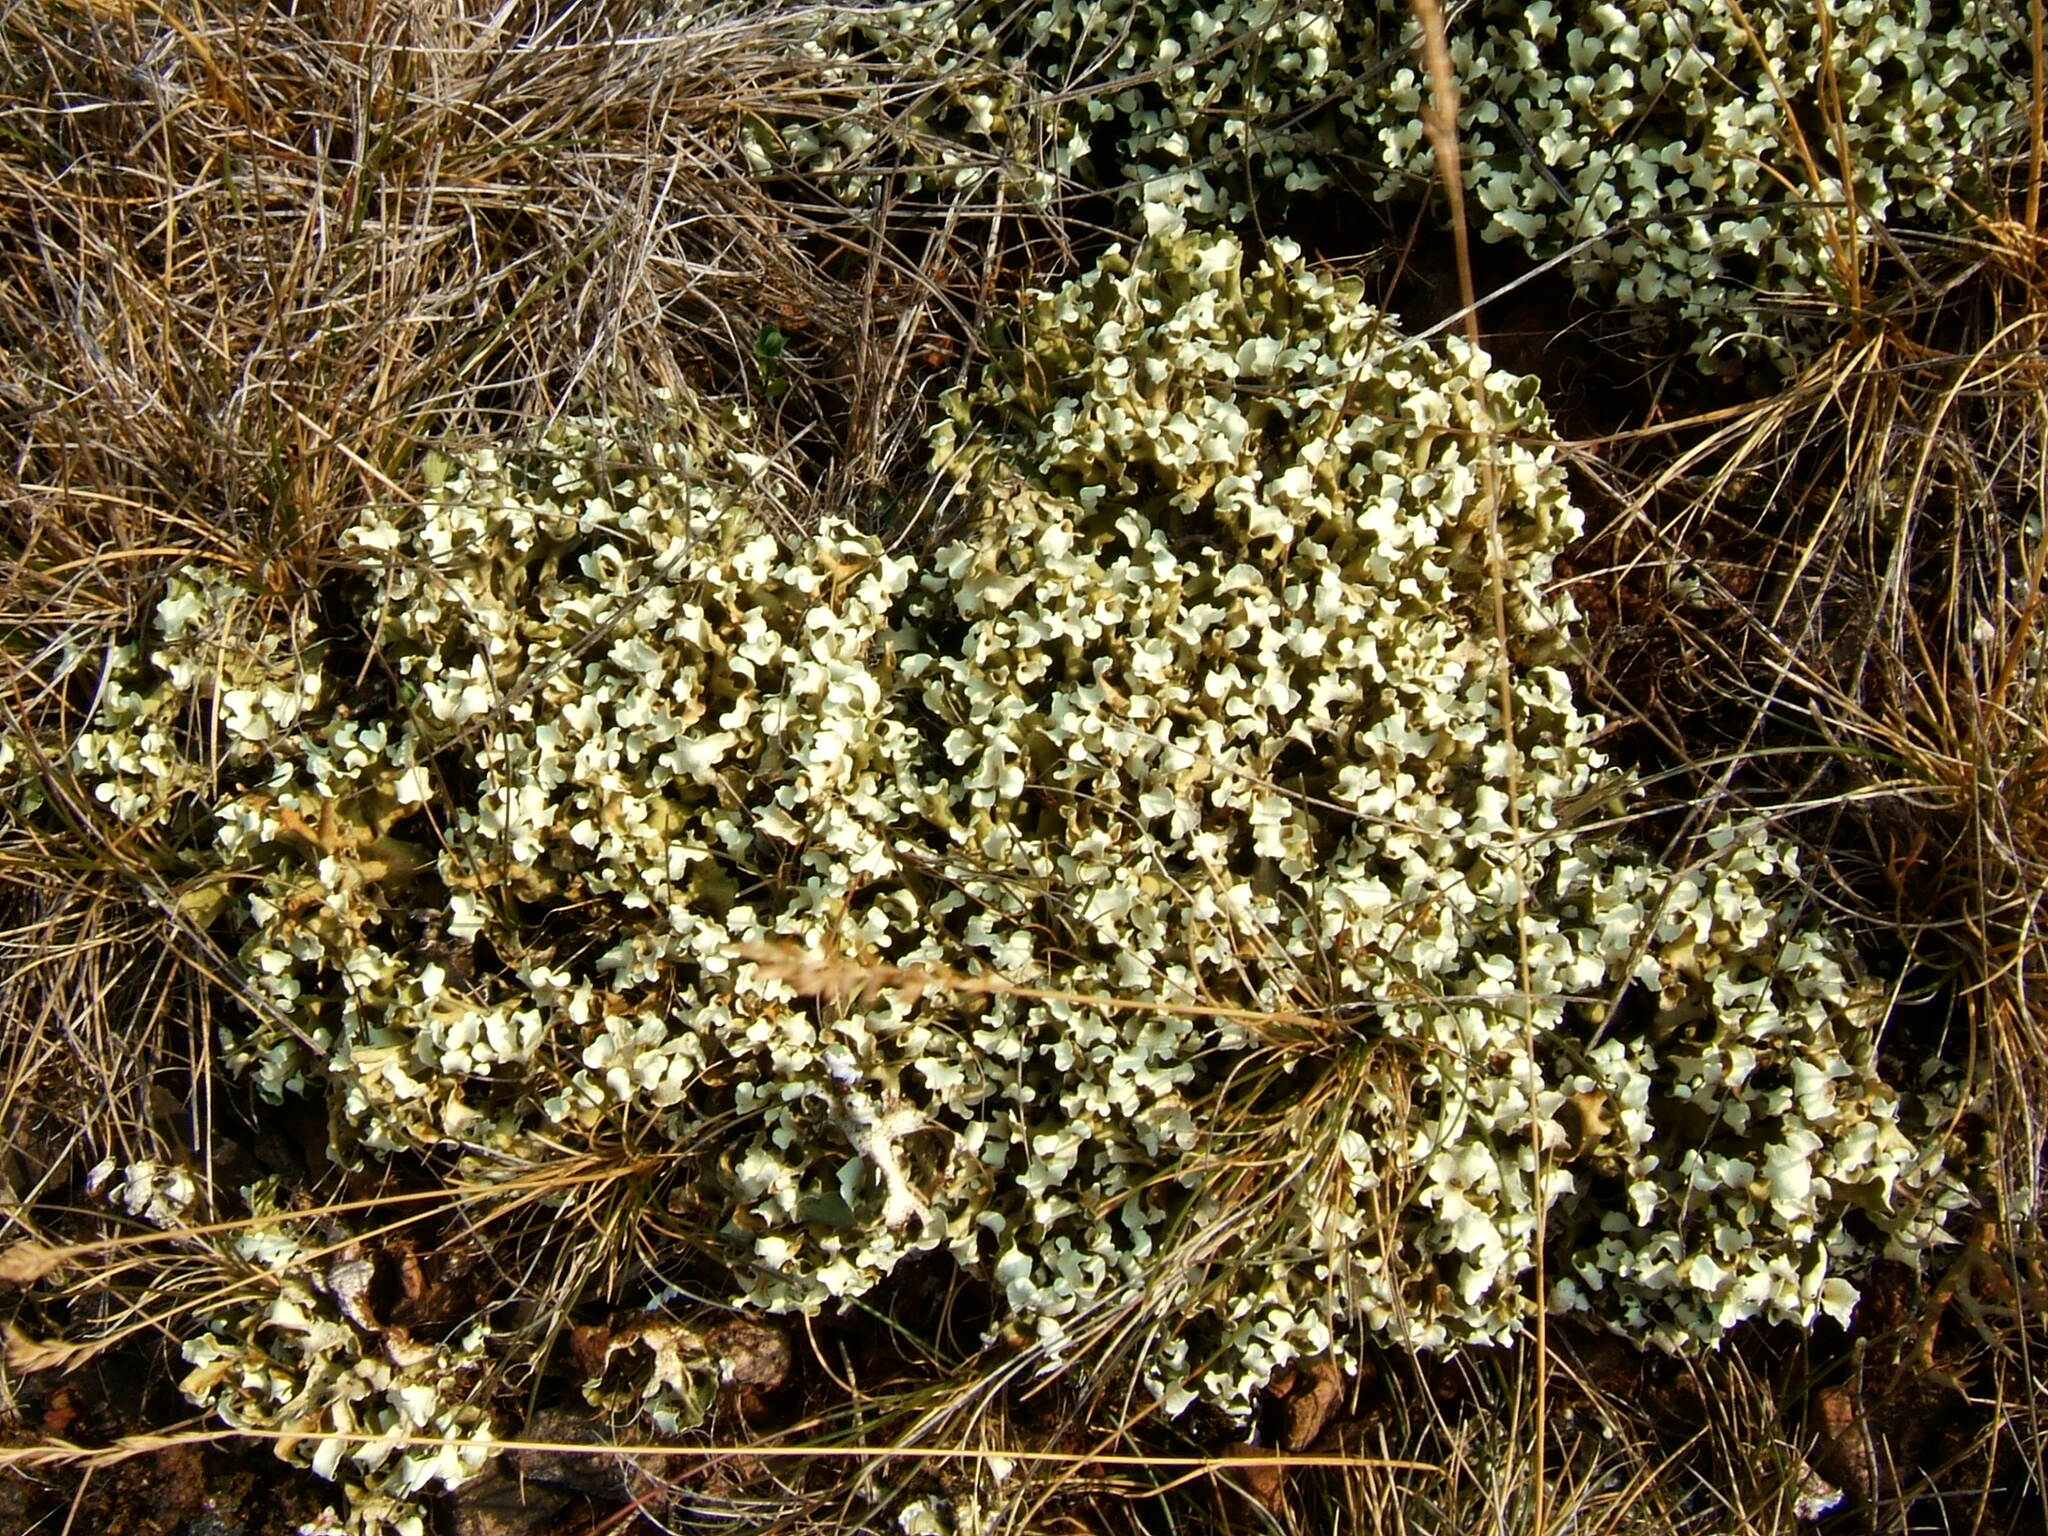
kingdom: Fungi
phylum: Ascomycota
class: Lecanoromycetes
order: Lecanorales
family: Cladoniaceae
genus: Cladonia
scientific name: Cladonia foliacea
